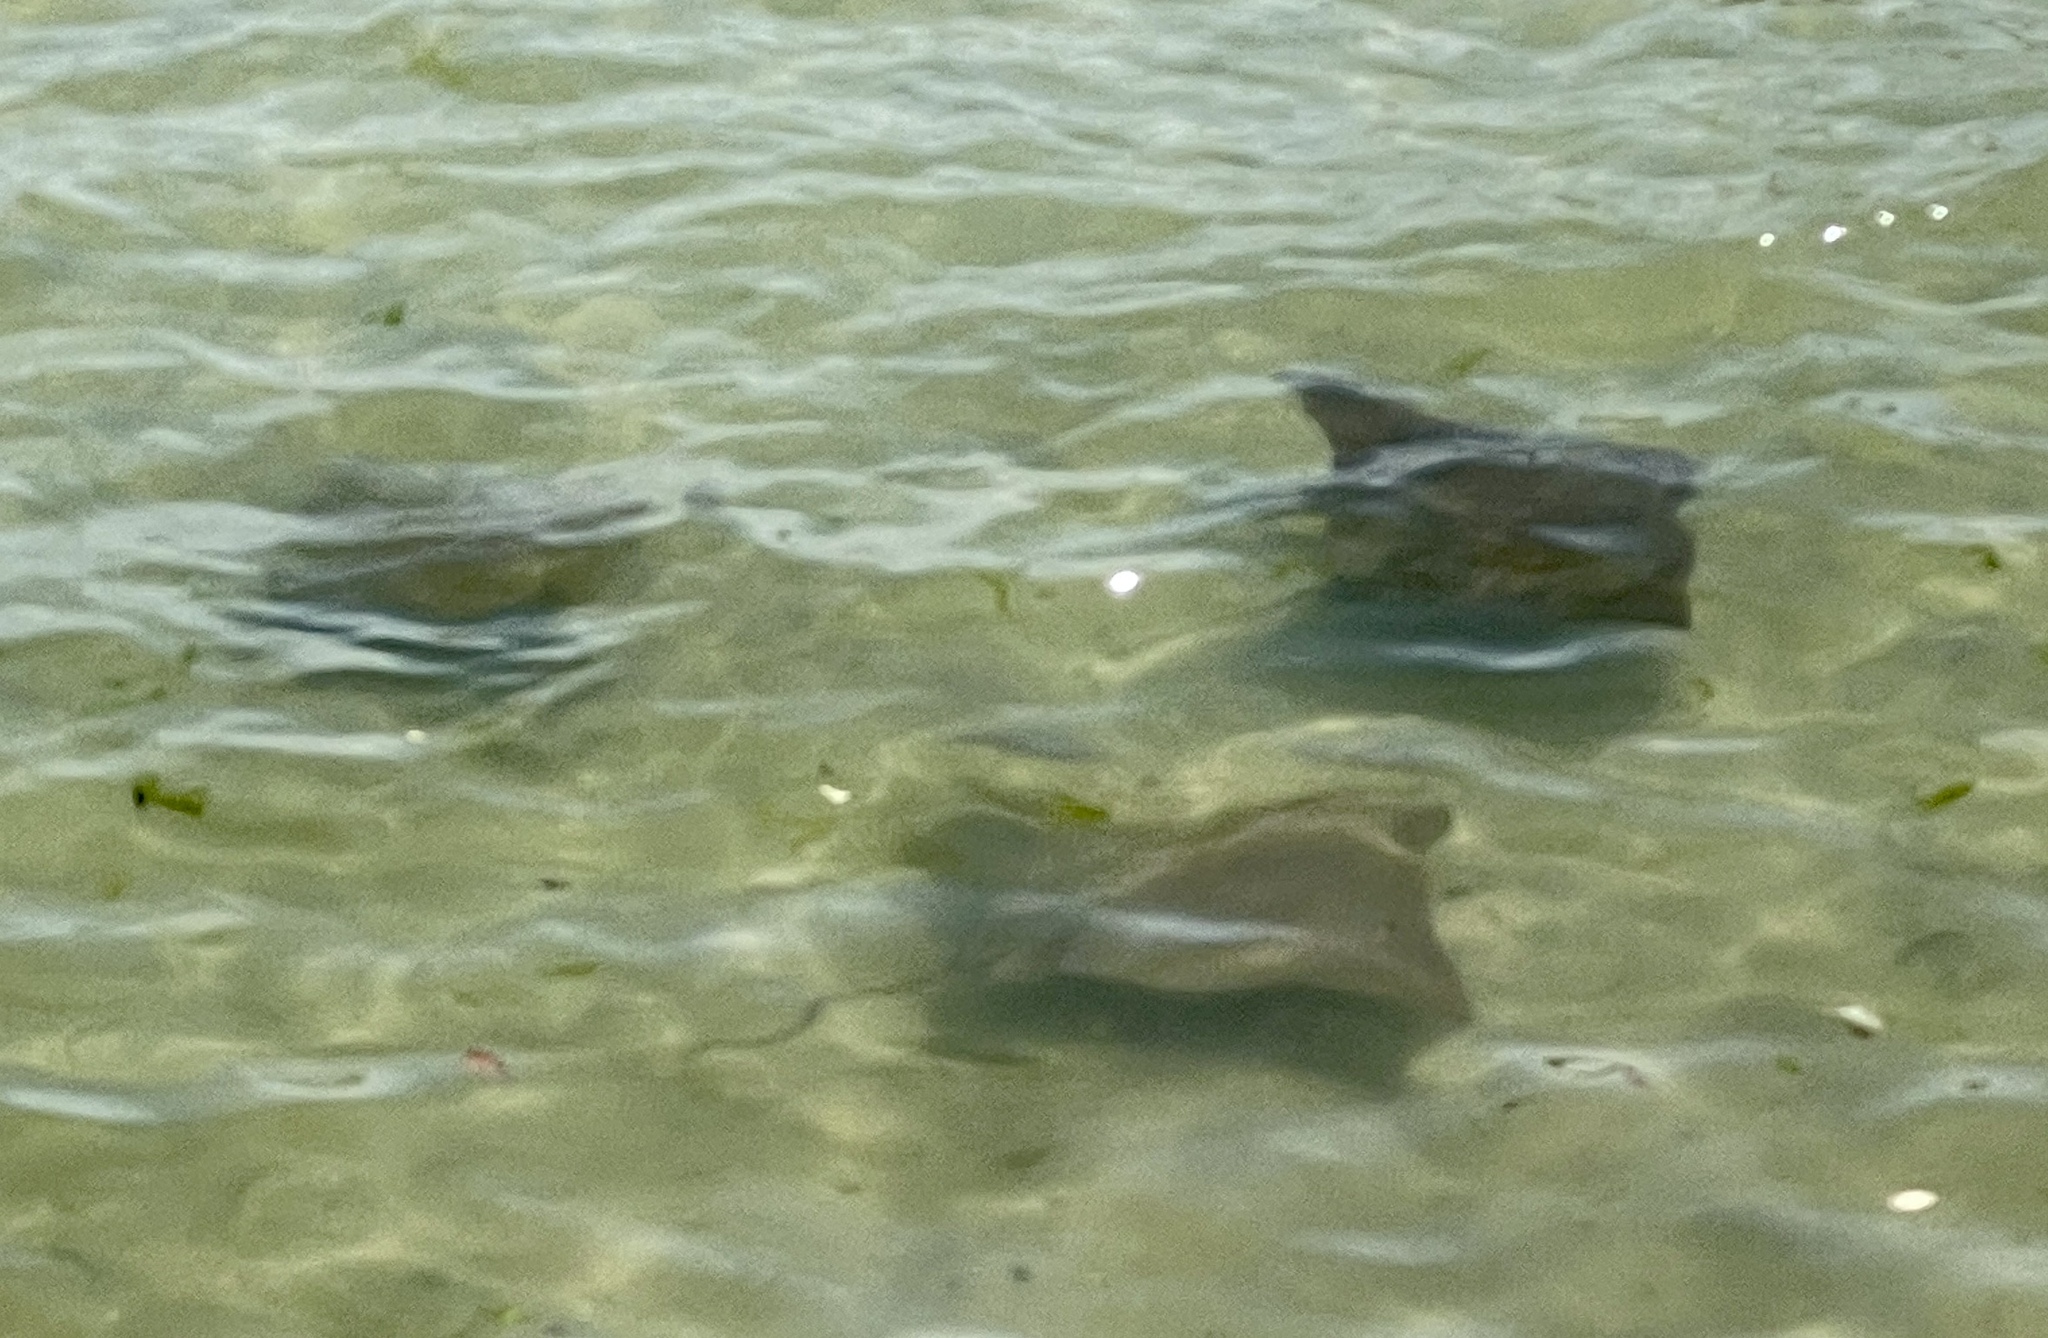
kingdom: Animalia
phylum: Chordata
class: Elasmobranchii
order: Myliobatiformes
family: Myliobatidae
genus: Rhinoptera
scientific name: Rhinoptera bonasus
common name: Cownose ray
